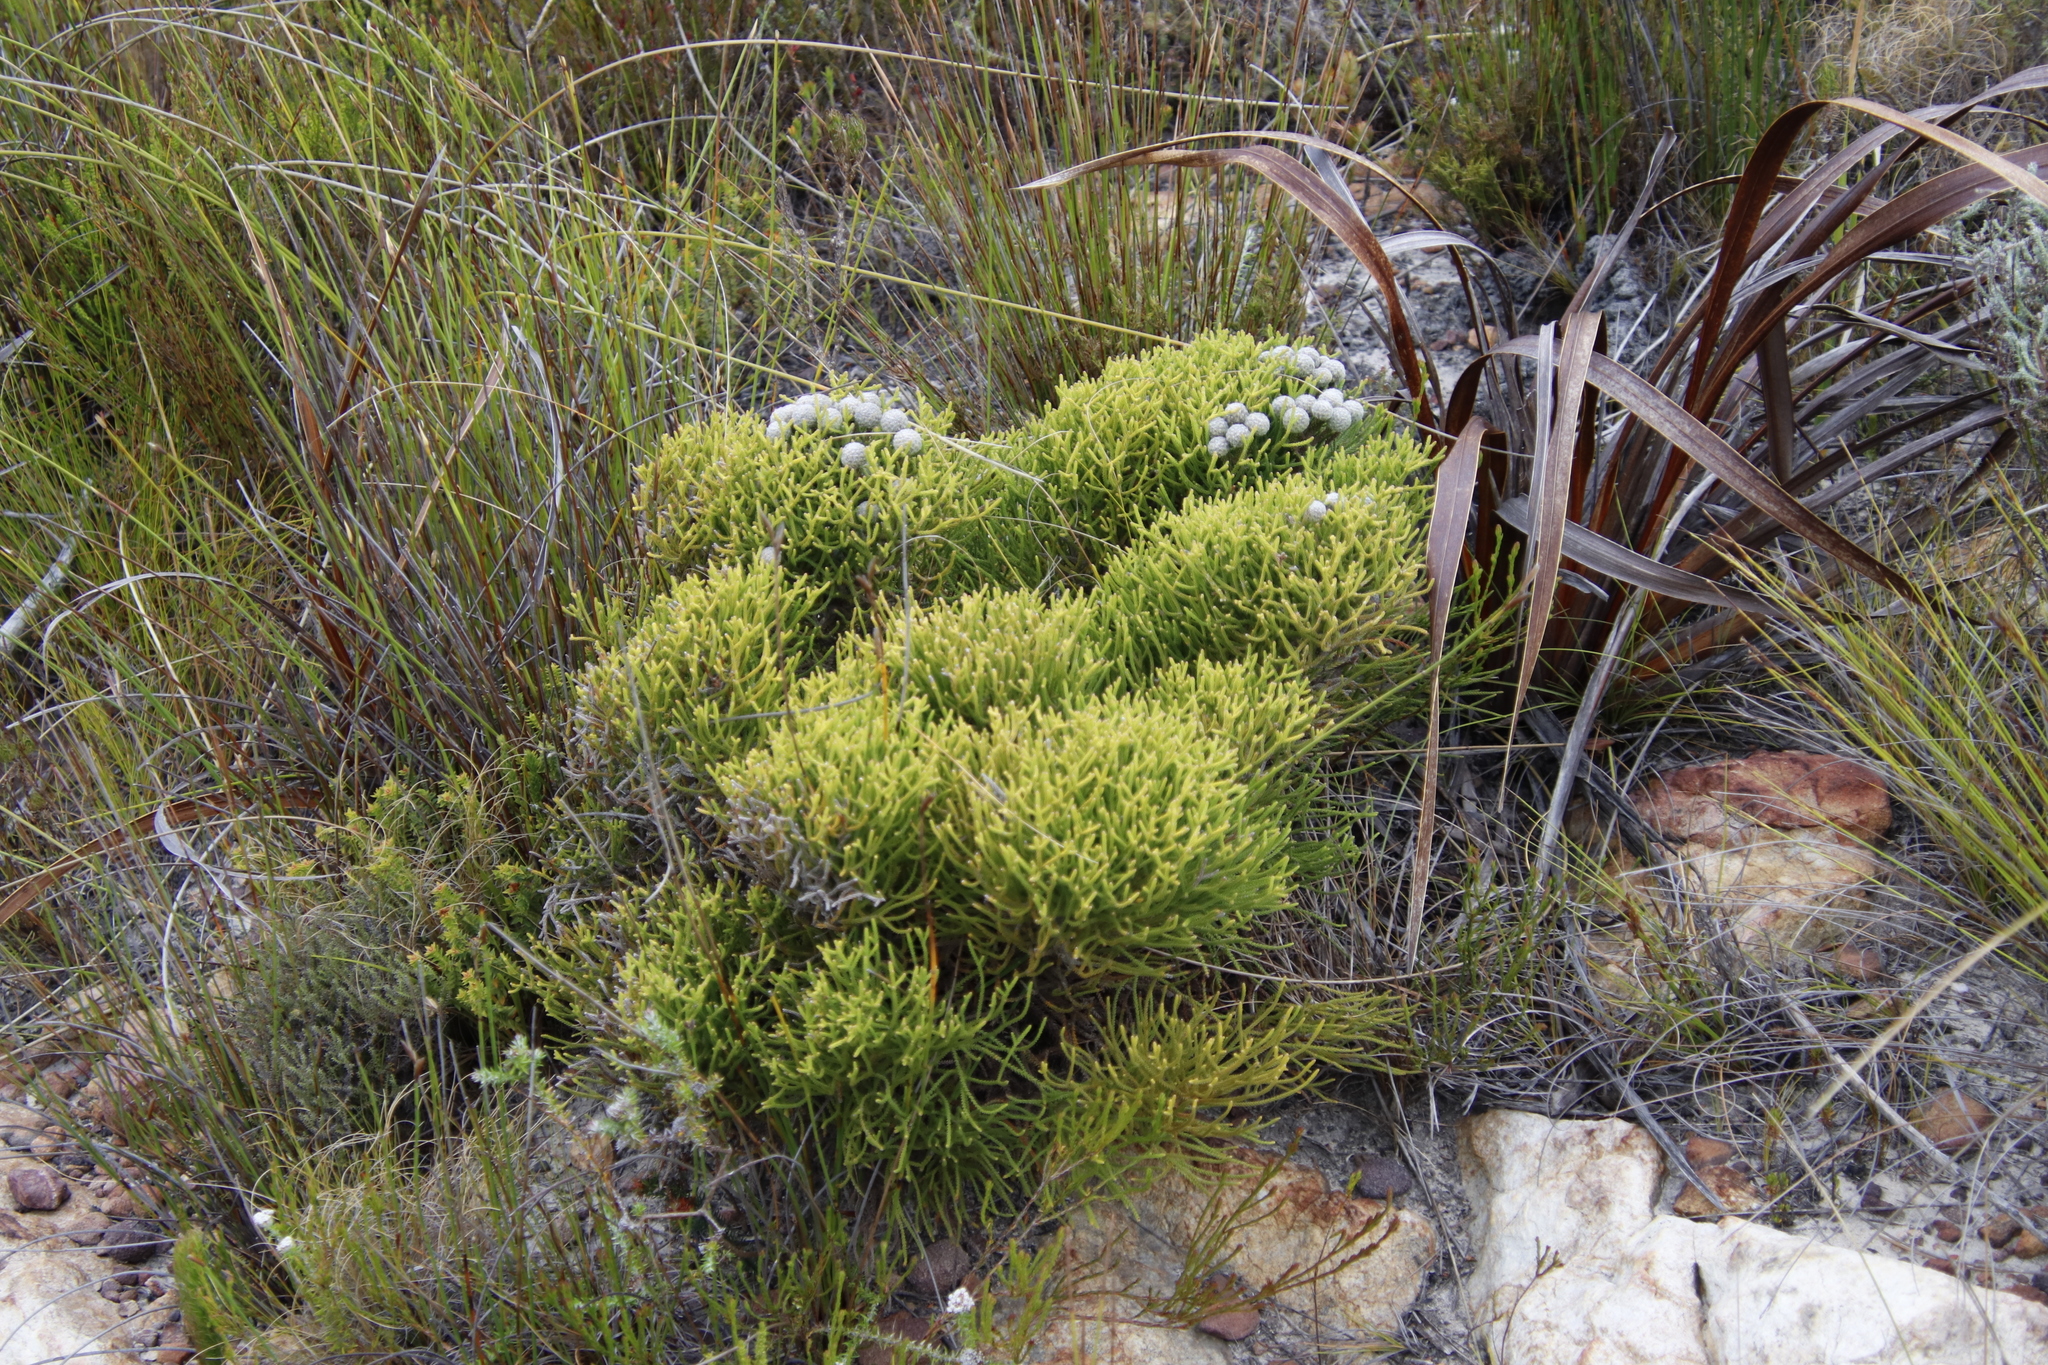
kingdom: Plantae
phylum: Tracheophyta
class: Magnoliopsida
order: Bruniales
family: Bruniaceae
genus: Brunia
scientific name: Brunia noduliflora
